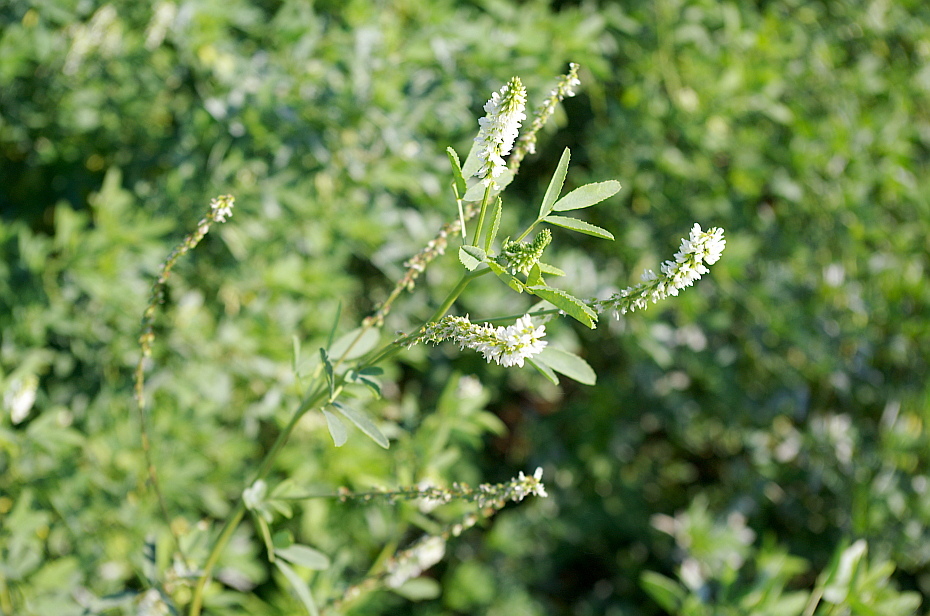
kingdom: Plantae
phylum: Tracheophyta
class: Magnoliopsida
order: Fabales
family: Fabaceae
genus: Melilotus
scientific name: Melilotus albus
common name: White melilot
